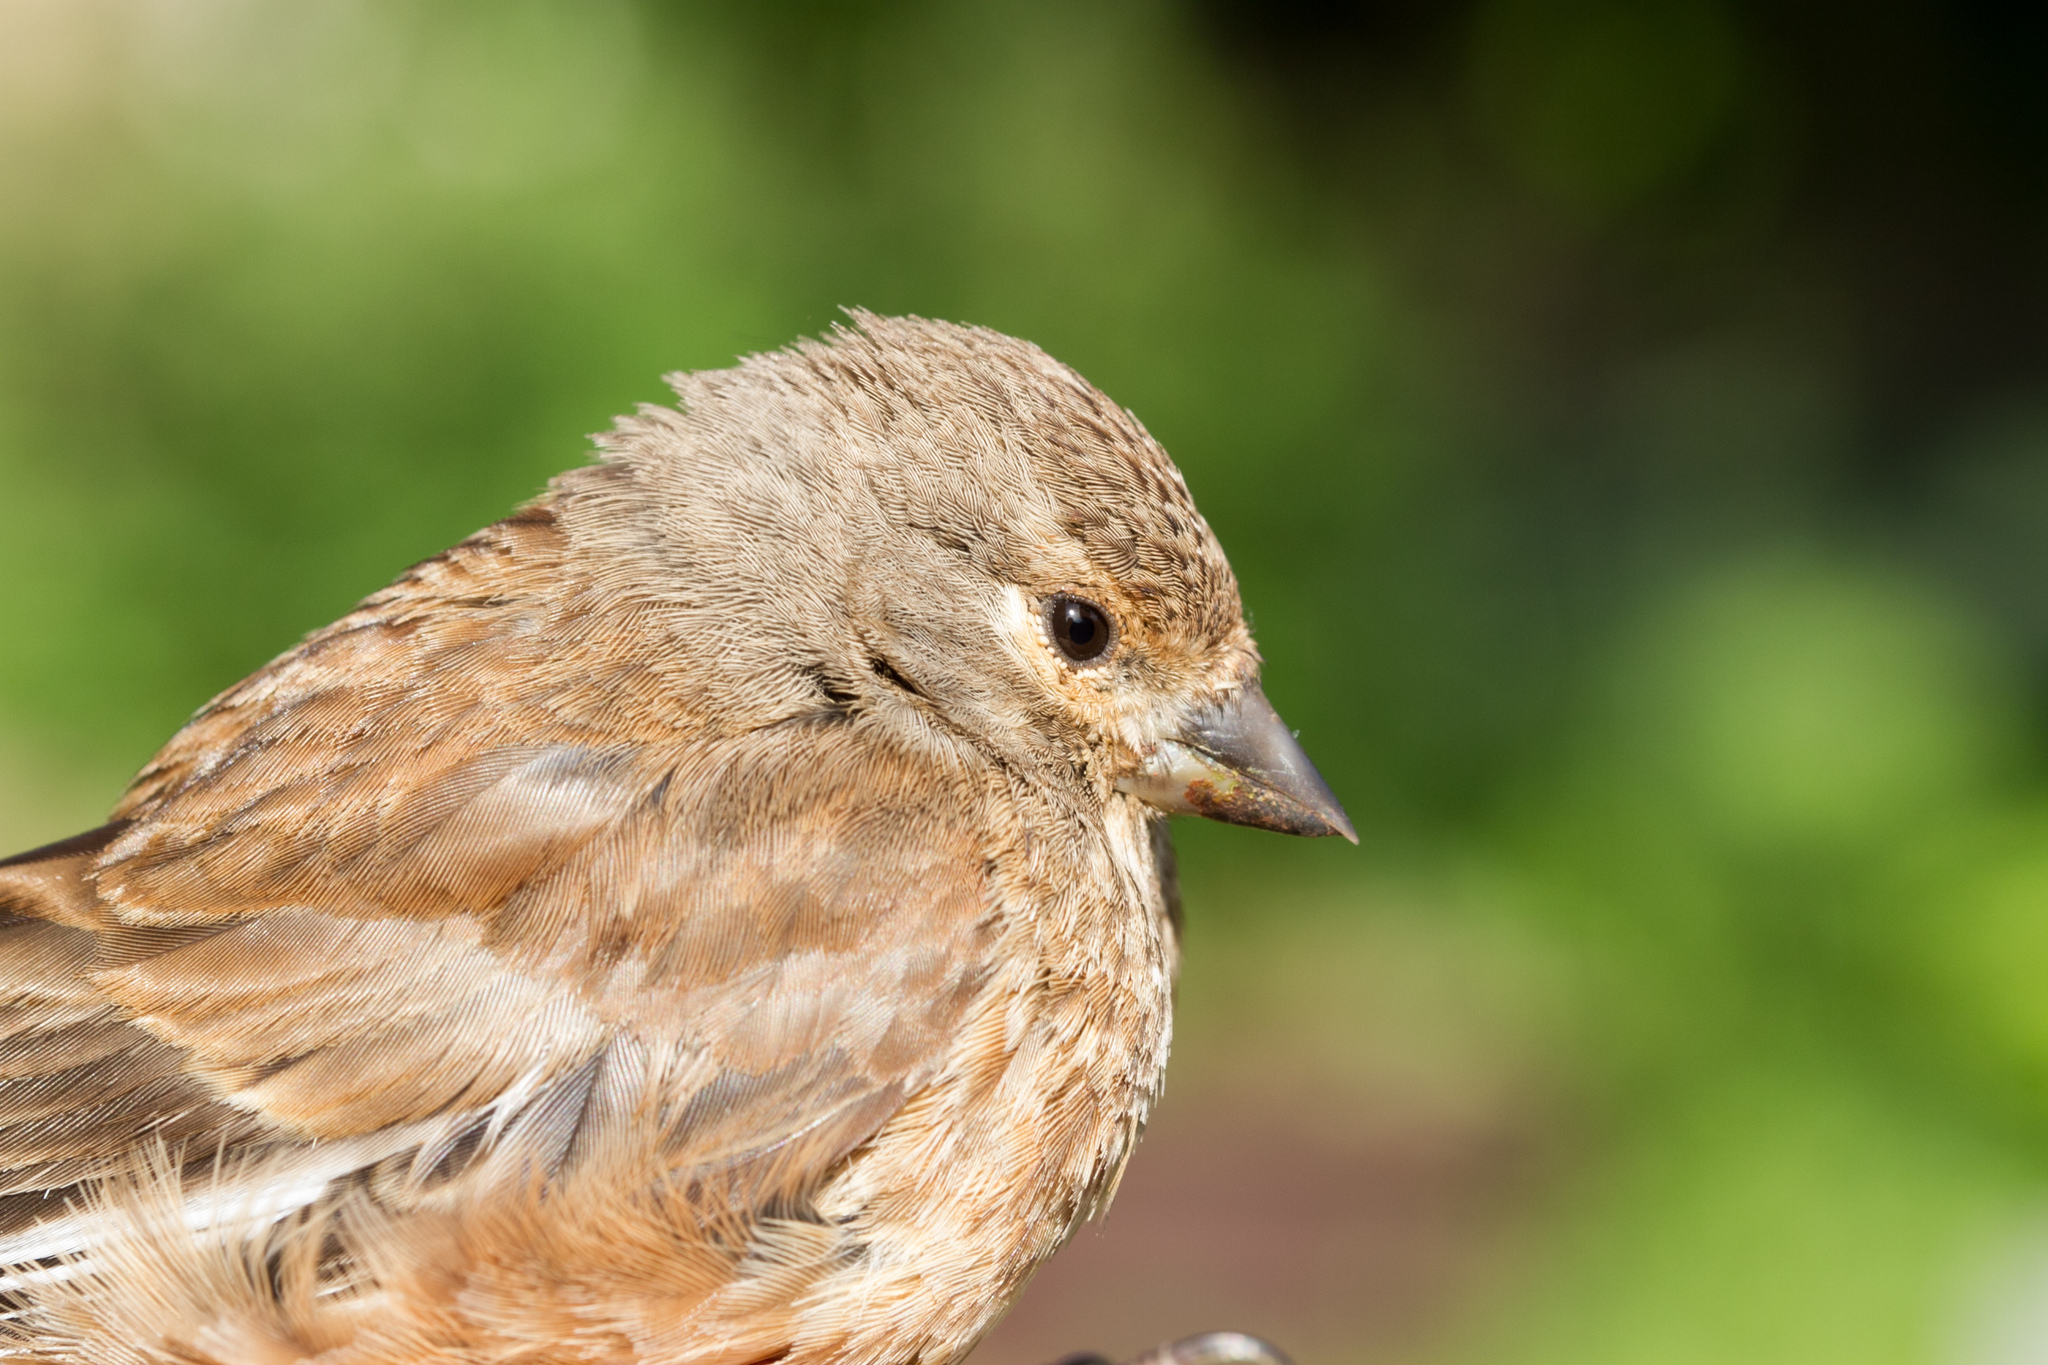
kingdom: Animalia
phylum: Chordata
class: Aves
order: Passeriformes
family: Fringillidae
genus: Linaria
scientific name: Linaria cannabina
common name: Common linnet
